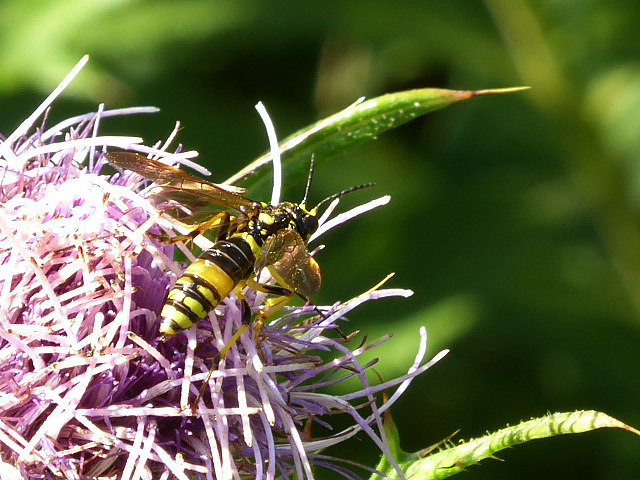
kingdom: Animalia
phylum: Arthropoda
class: Insecta
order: Hymenoptera
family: Tenthredinidae
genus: Tenthredo
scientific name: Tenthredo
